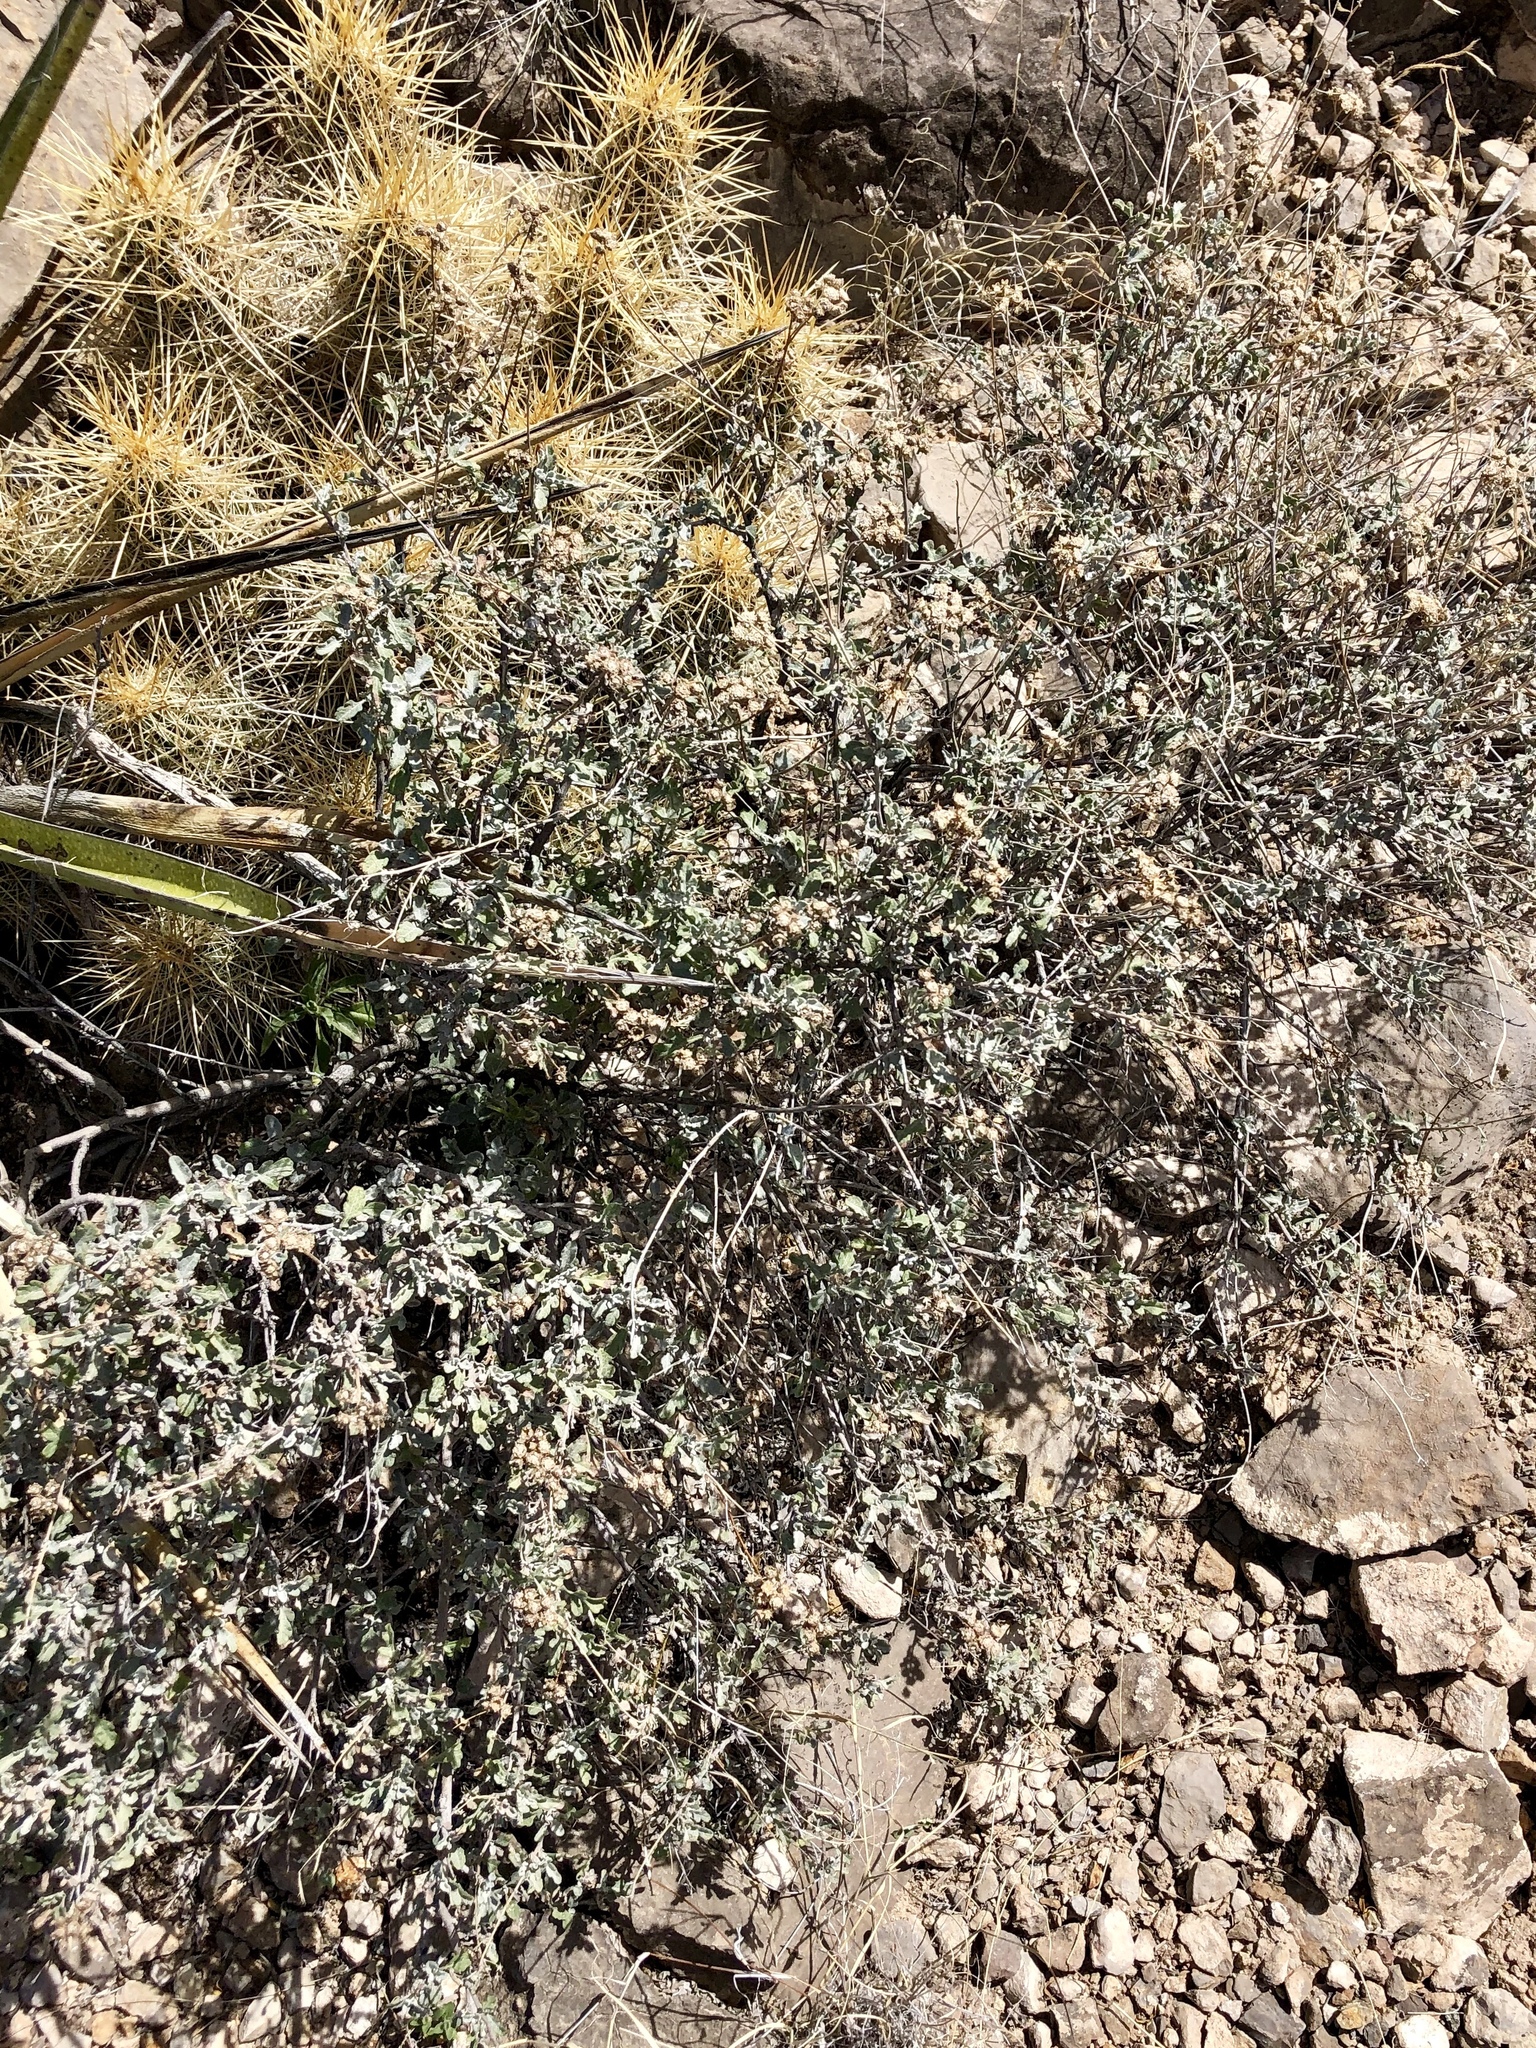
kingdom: Plantae
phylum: Tracheophyta
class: Magnoliopsida
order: Asterales
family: Asteraceae
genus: Parthenium
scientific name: Parthenium incanum
